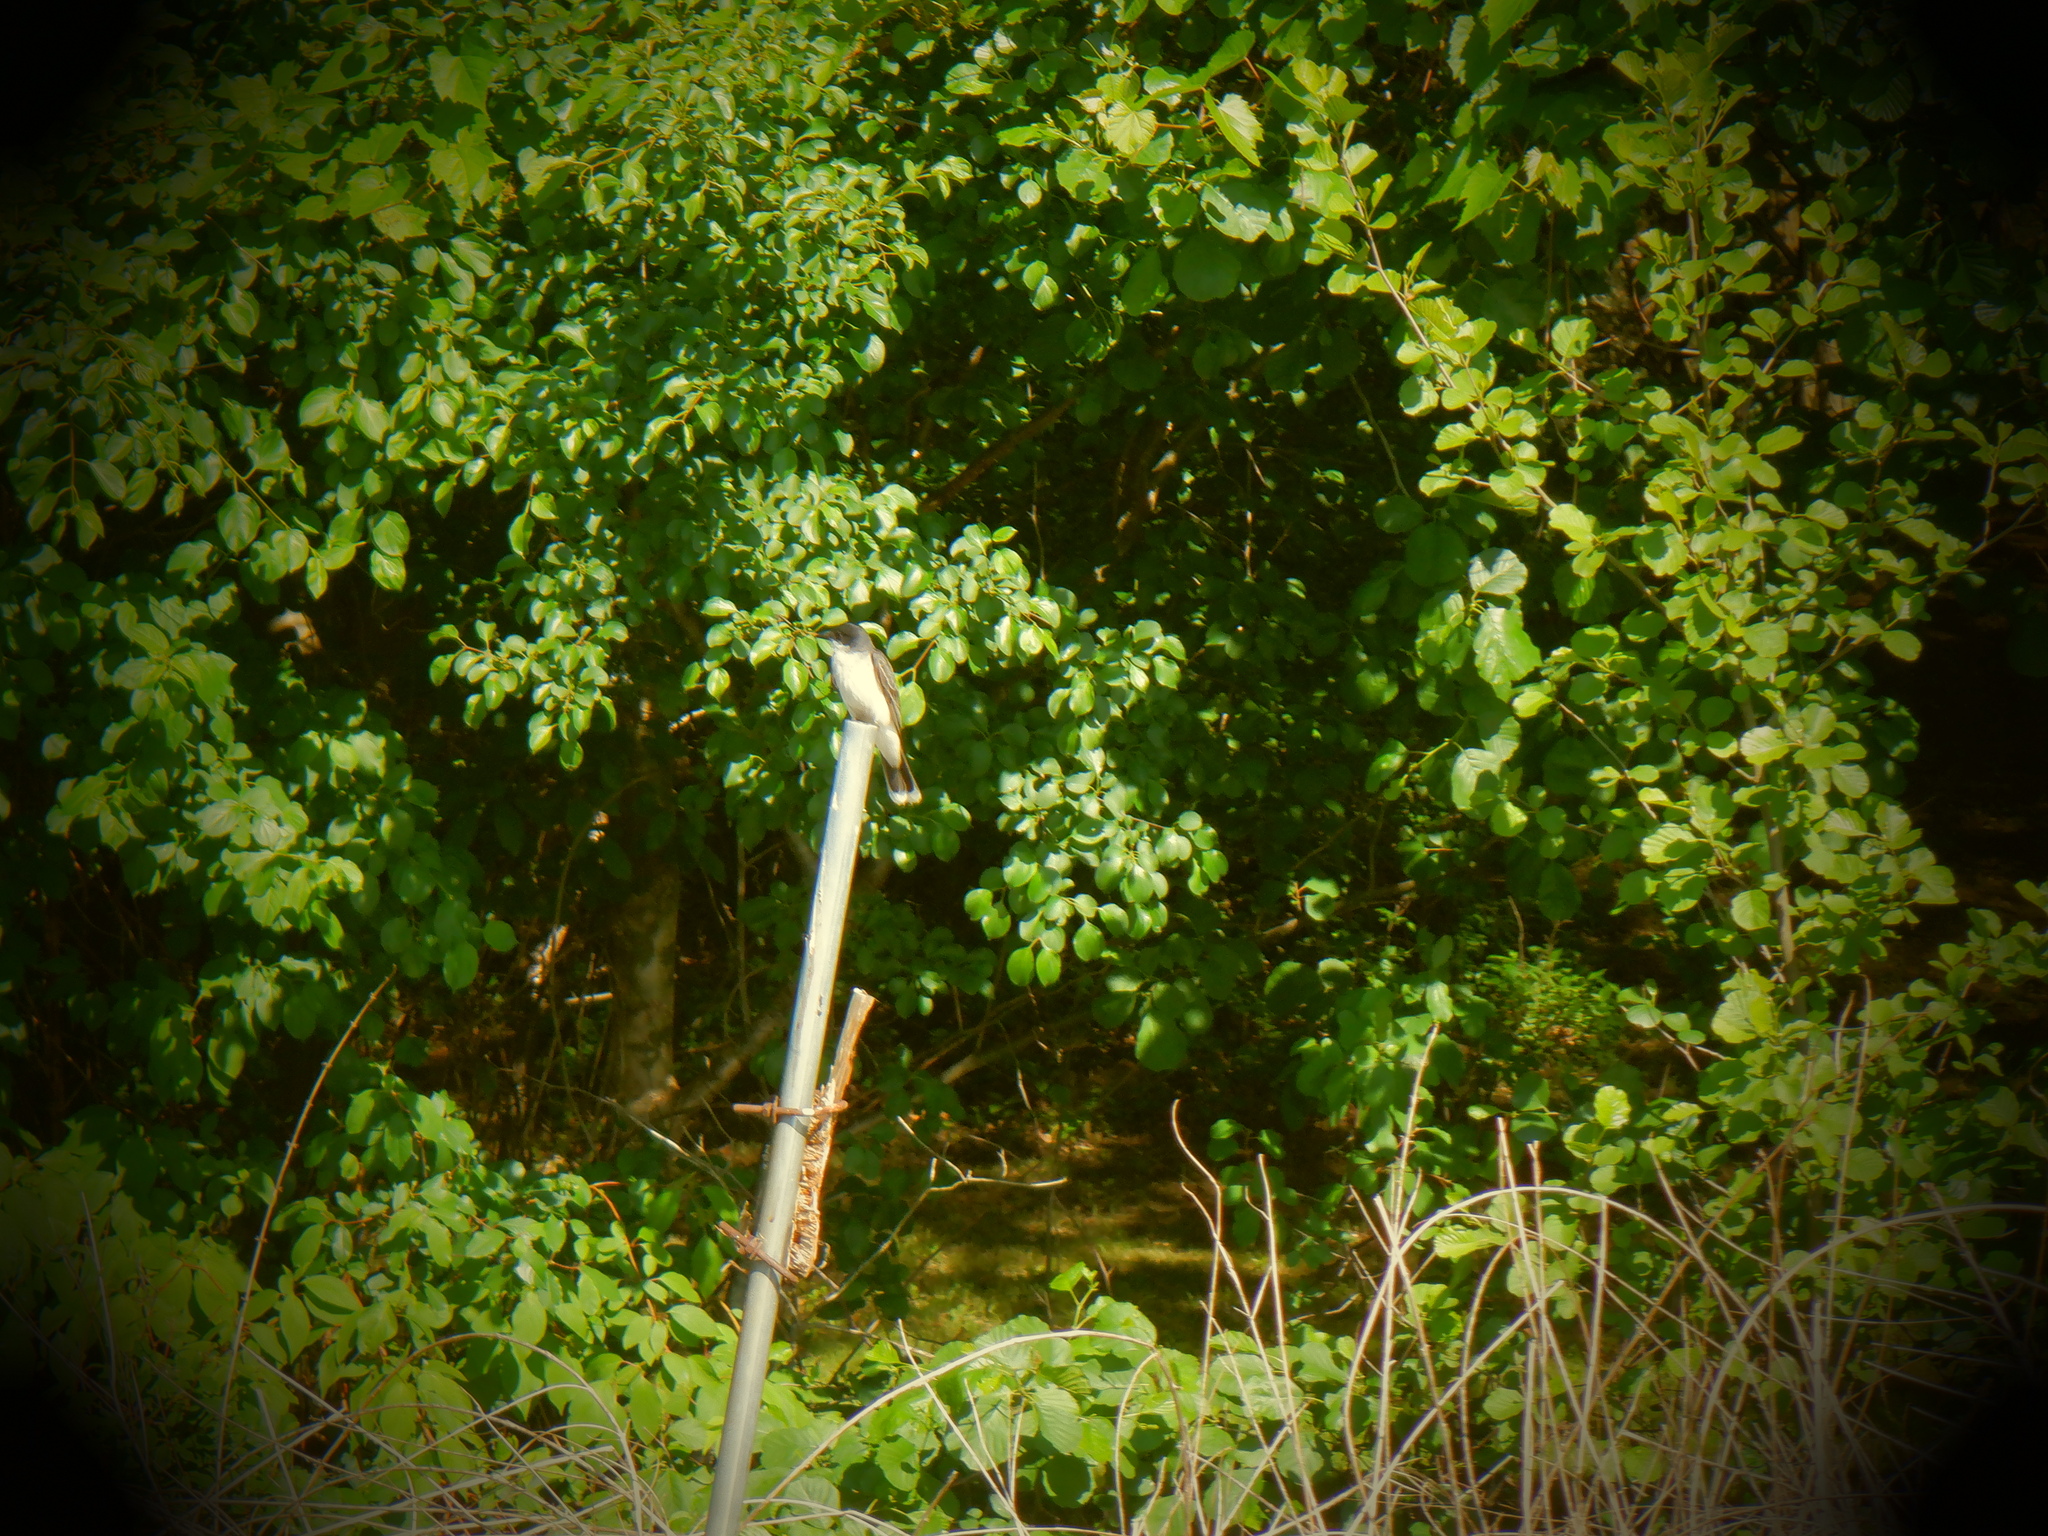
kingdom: Animalia
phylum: Chordata
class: Aves
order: Passeriformes
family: Tyrannidae
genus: Tyrannus
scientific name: Tyrannus tyrannus
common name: Eastern kingbird
